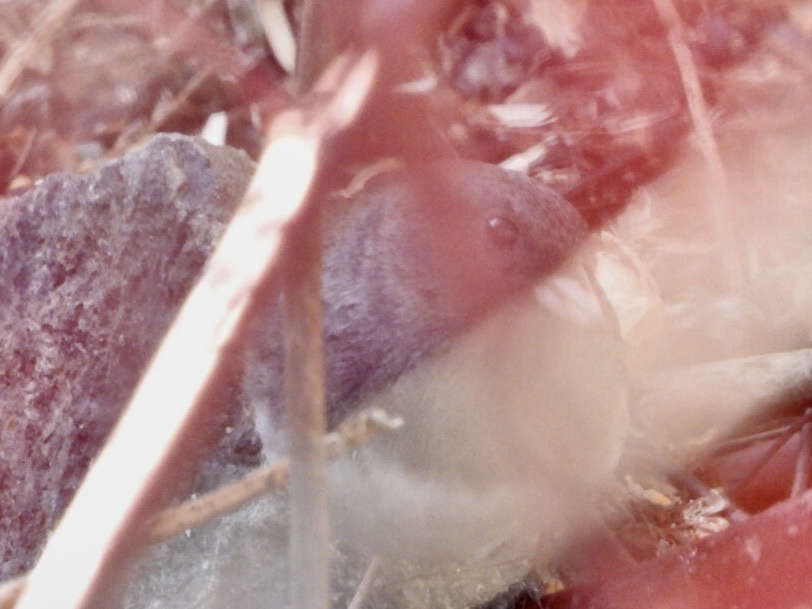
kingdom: Animalia
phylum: Chordata
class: Aves
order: Passeriformes
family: Passerellidae
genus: Junco
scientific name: Junco hyemalis
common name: Dark-eyed junco
